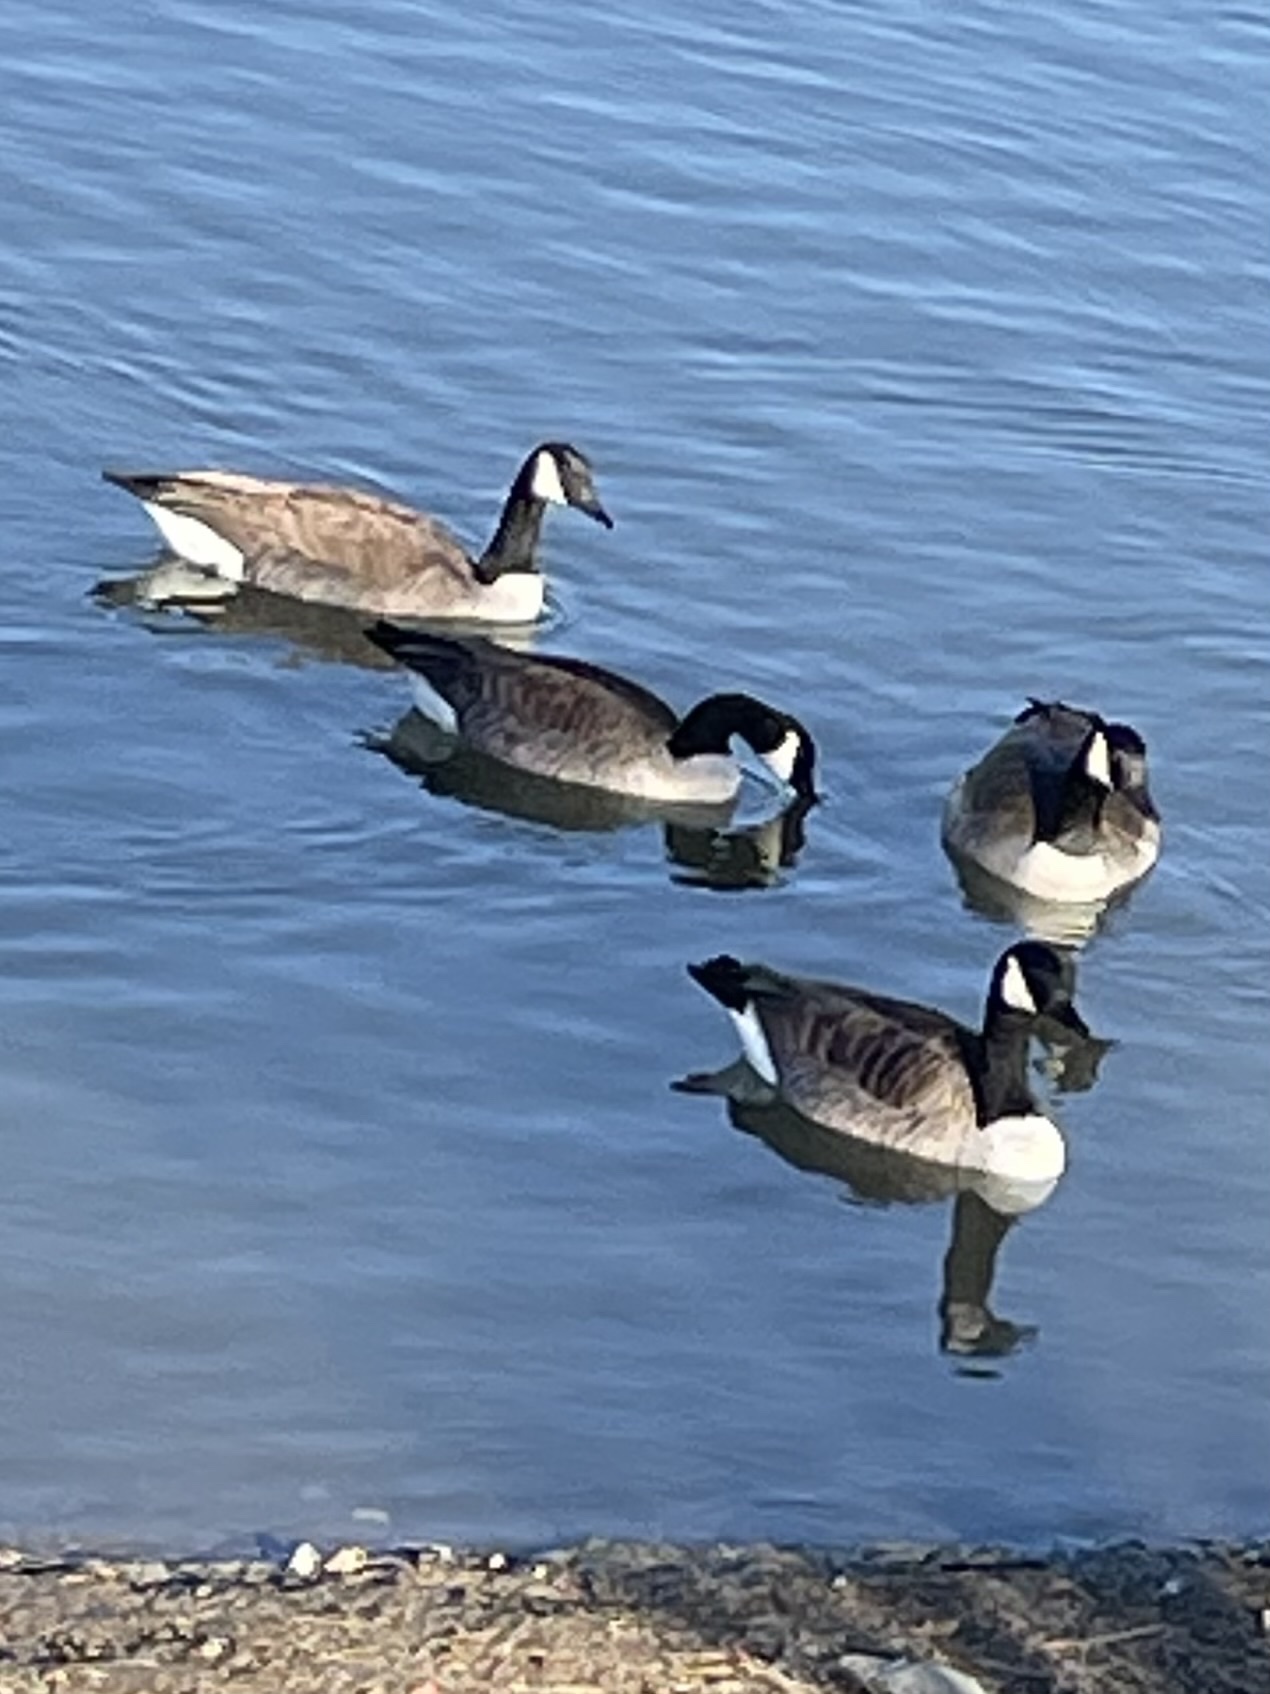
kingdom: Animalia
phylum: Chordata
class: Aves
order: Anseriformes
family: Anatidae
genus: Branta
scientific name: Branta canadensis
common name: Canada goose
